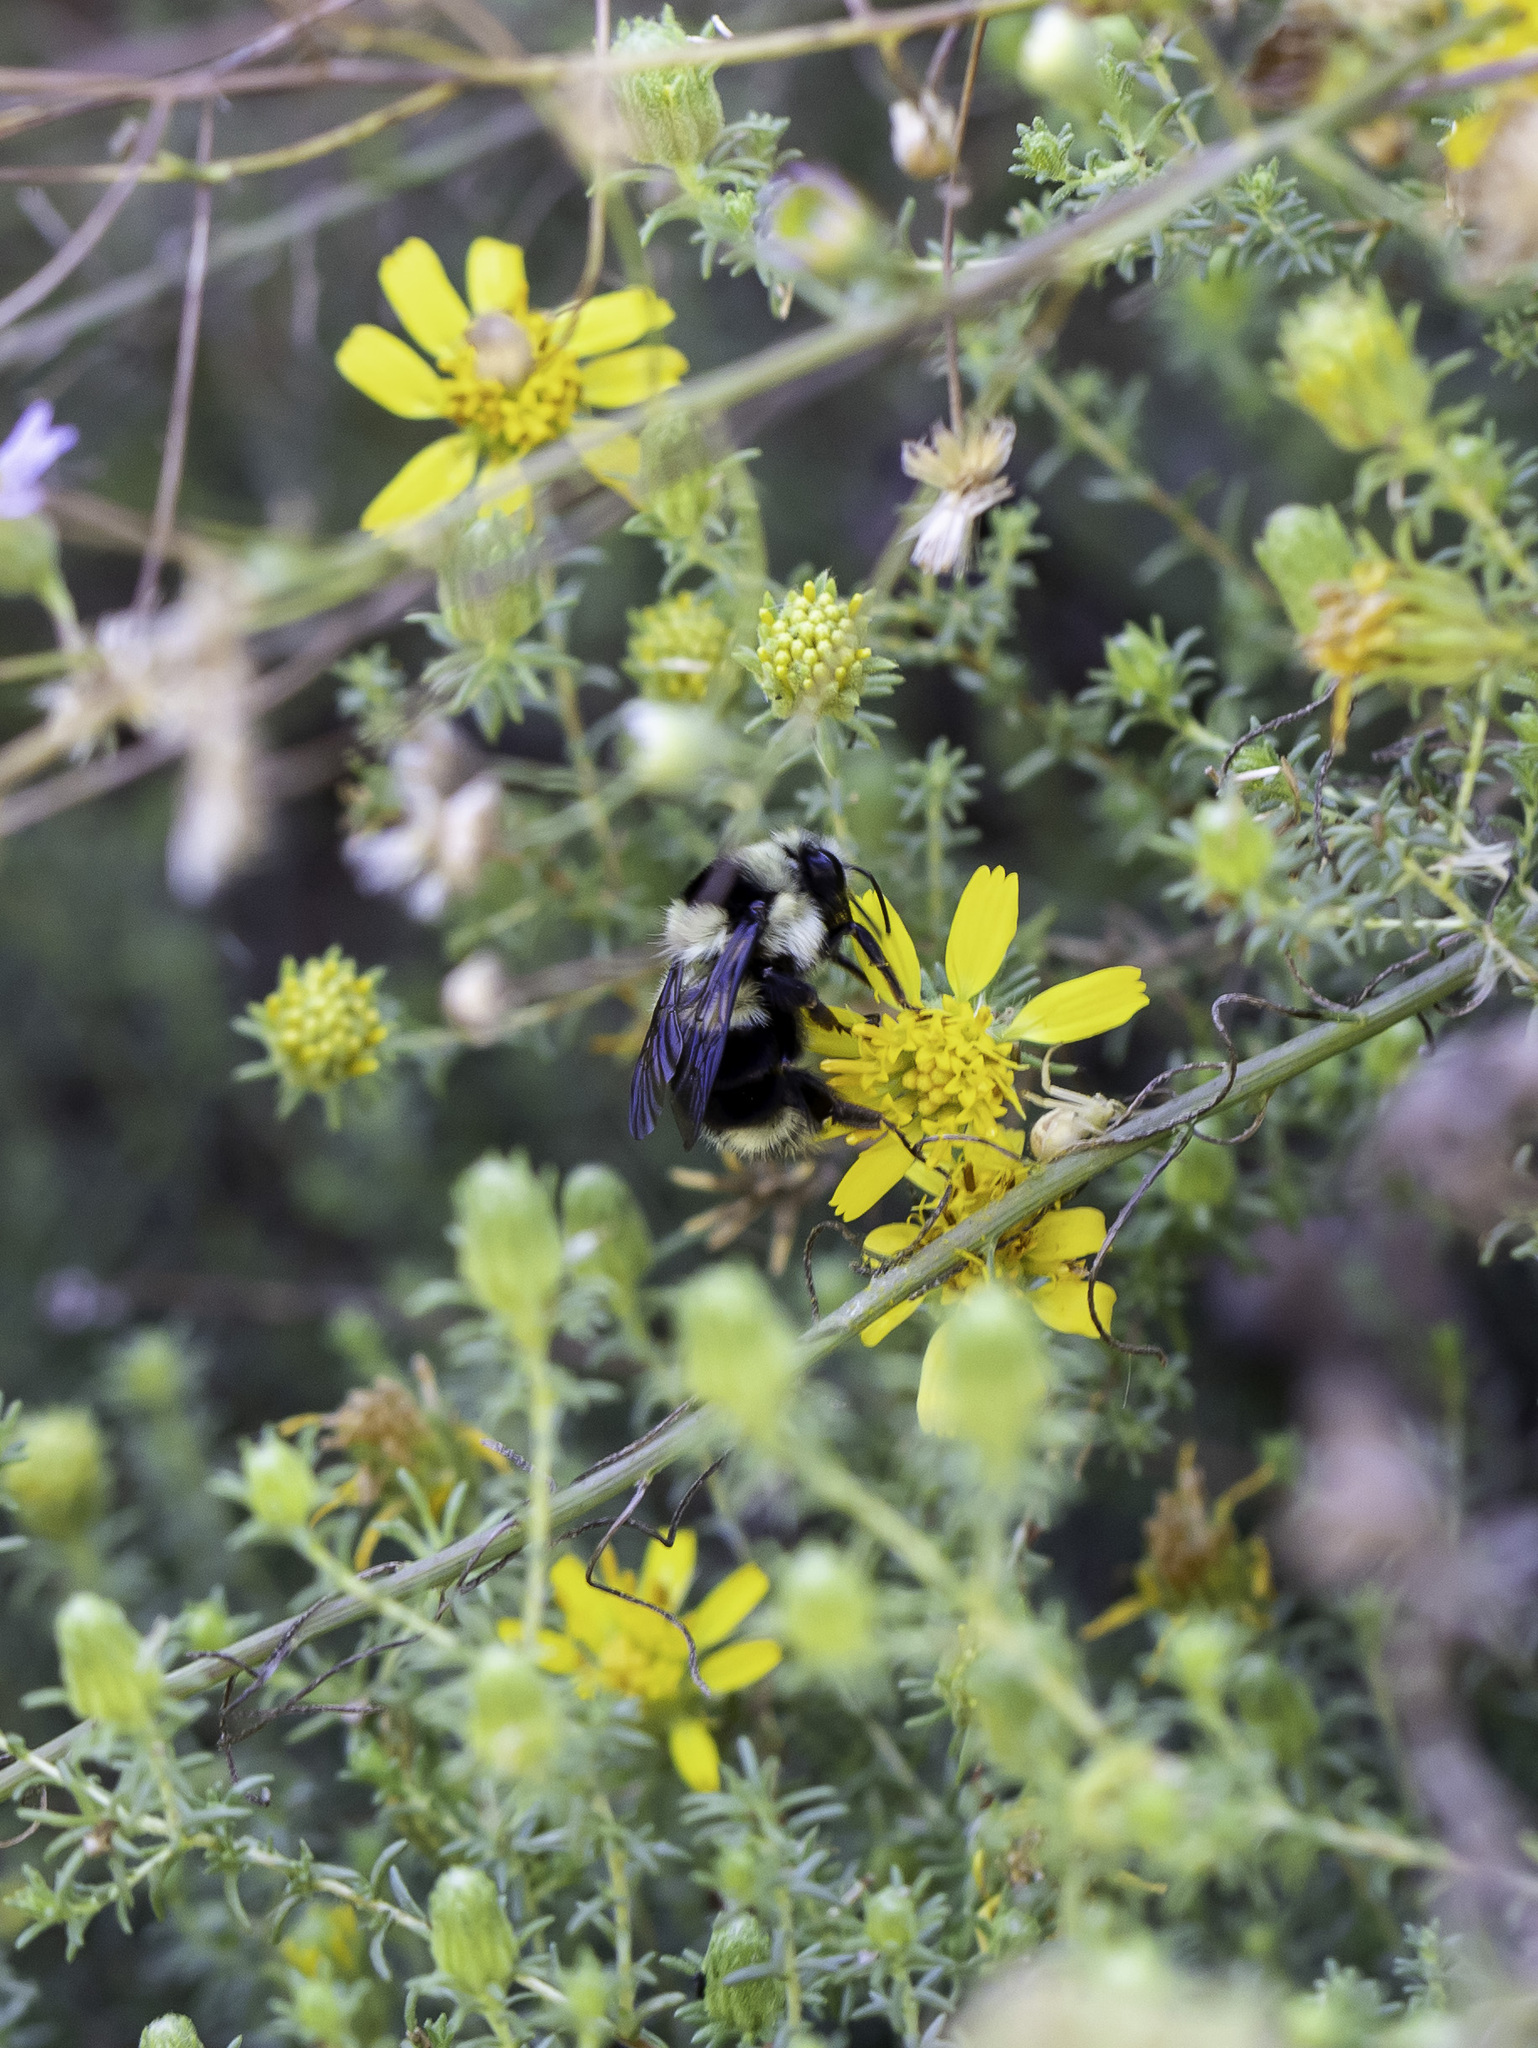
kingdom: Animalia
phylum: Arthropoda
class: Insecta
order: Hymenoptera
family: Apidae
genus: Bombus
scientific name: Bombus melanopygus
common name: Black tail bumble bee
